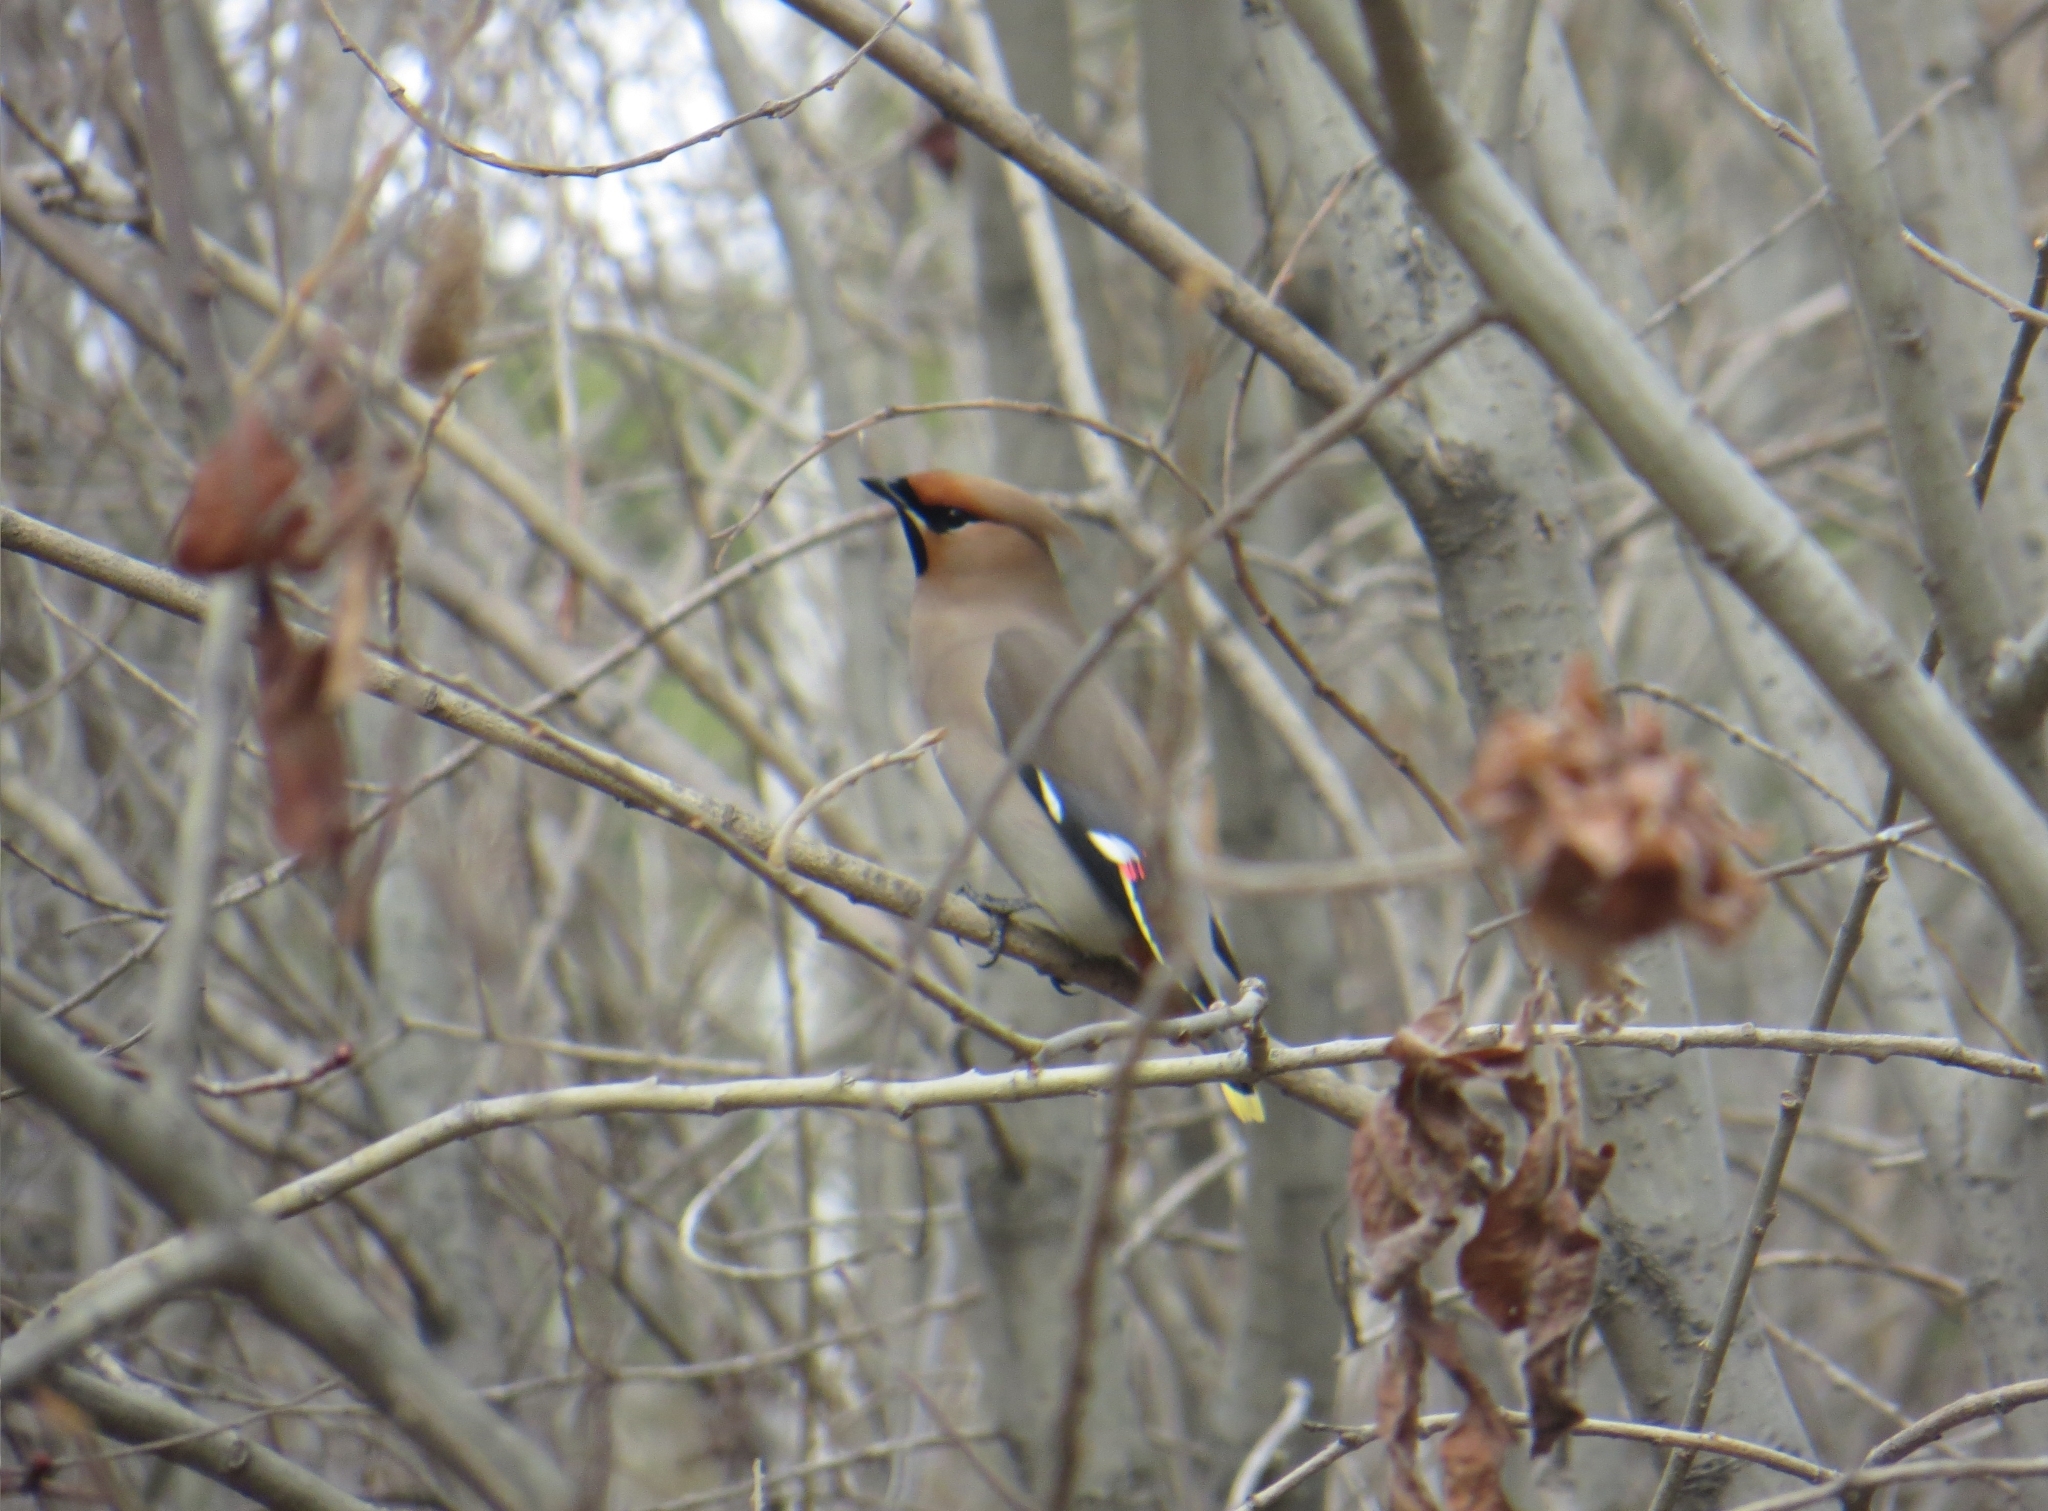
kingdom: Animalia
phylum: Chordata
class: Aves
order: Passeriformes
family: Bombycillidae
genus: Bombycilla
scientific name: Bombycilla garrulus
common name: Bohemian waxwing
